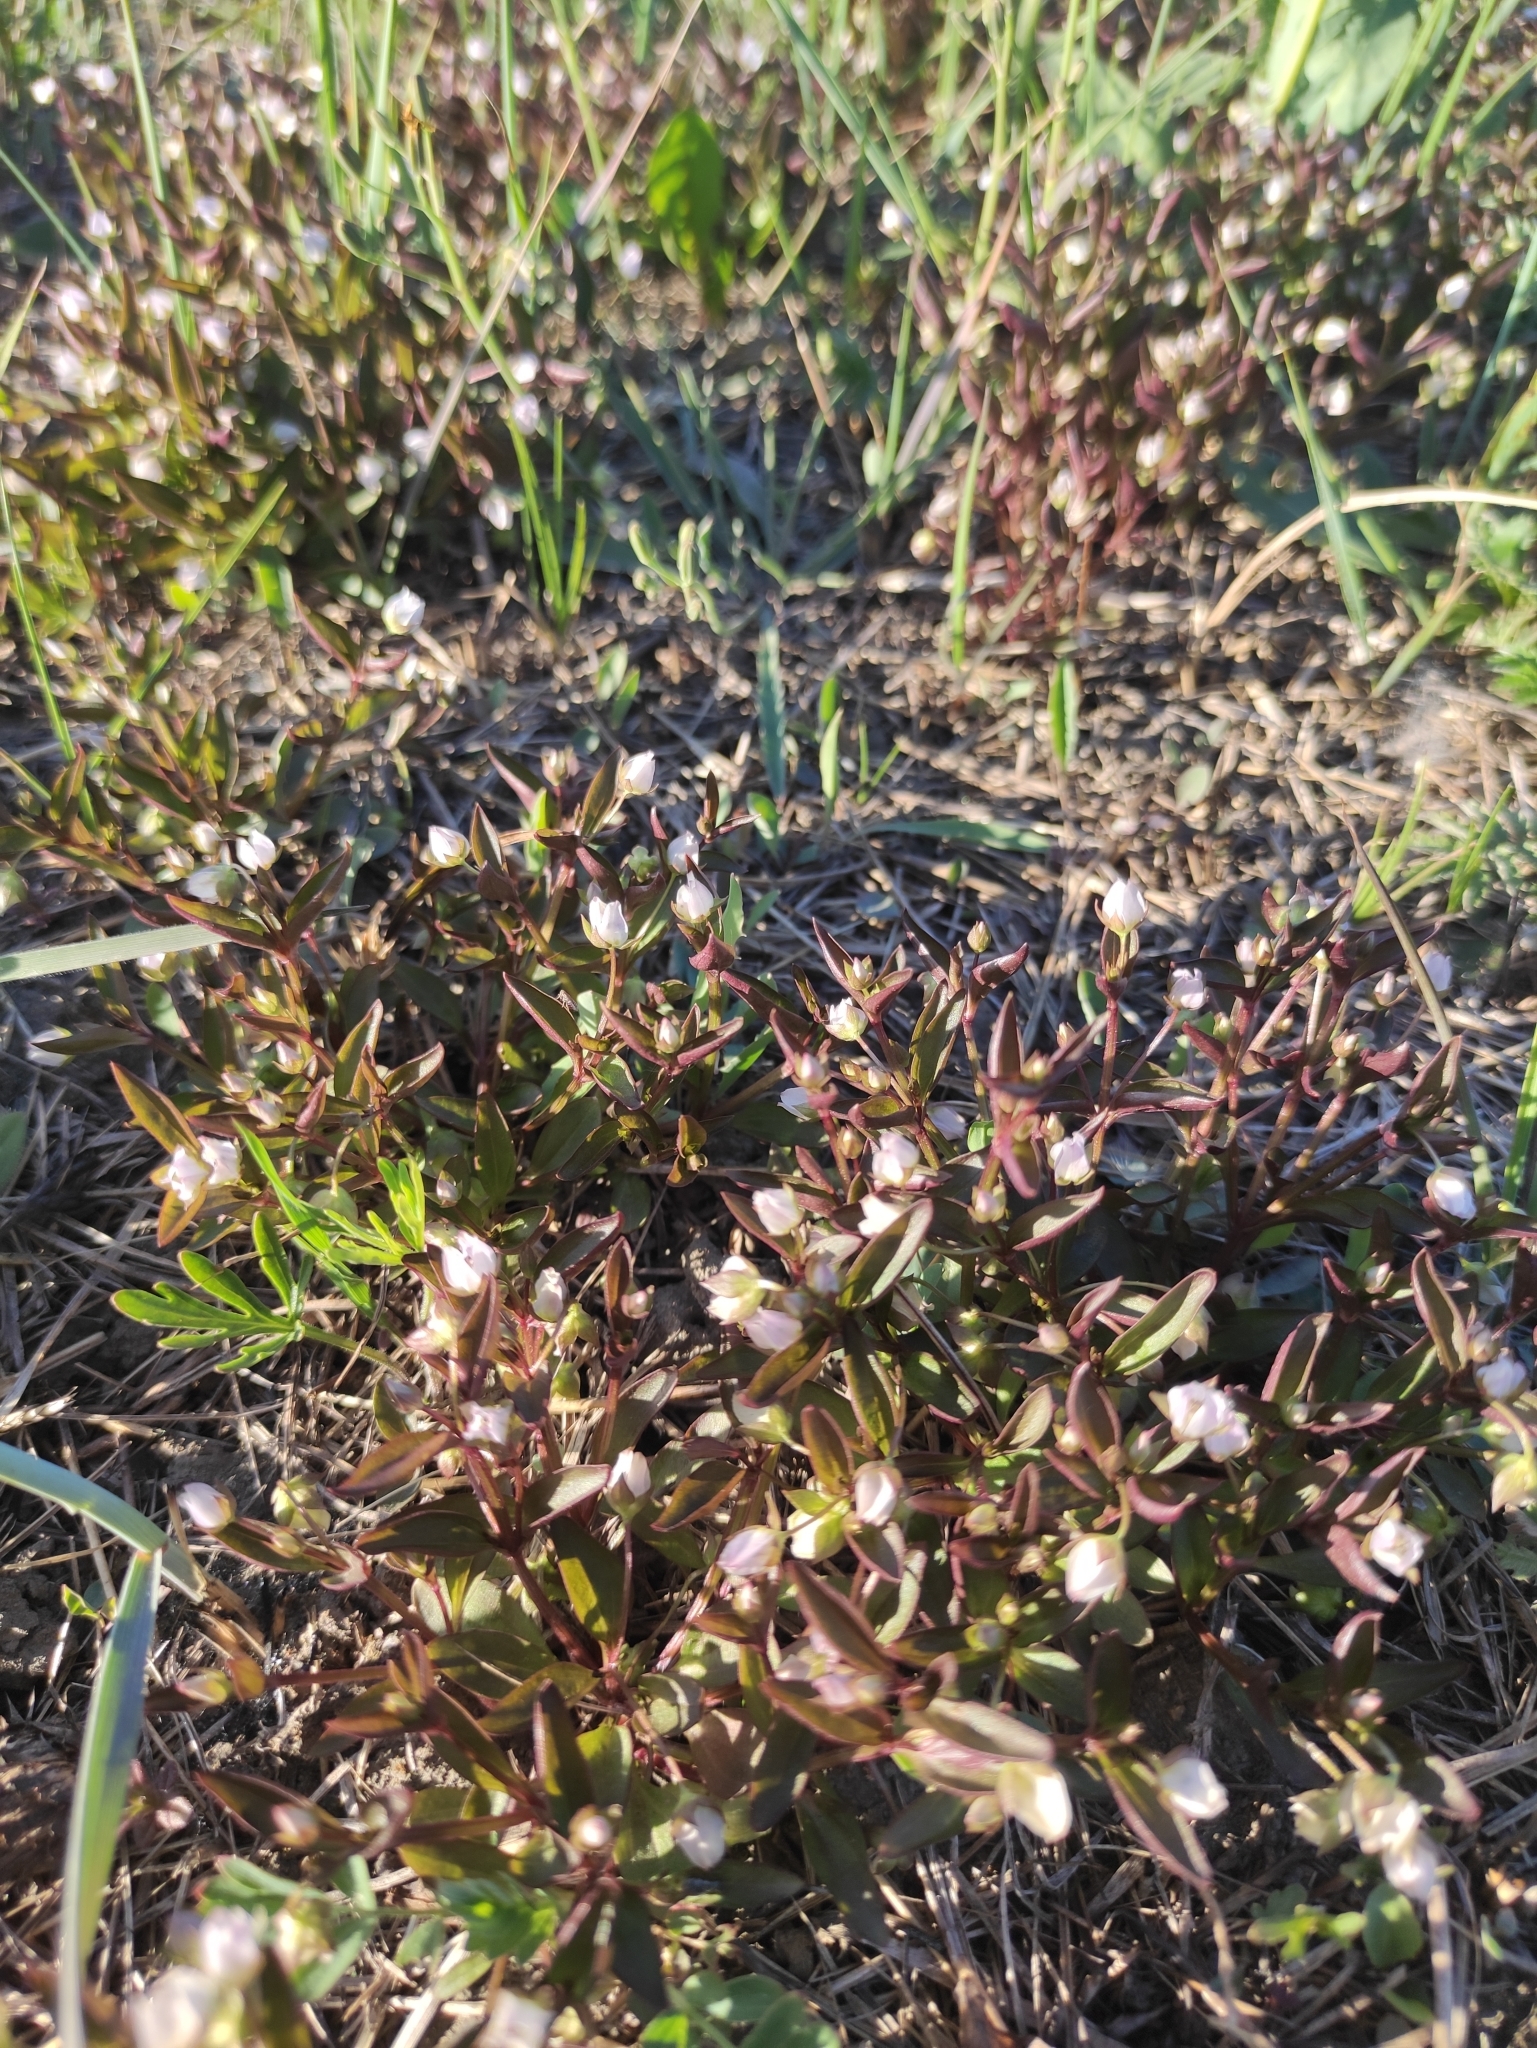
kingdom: Plantae
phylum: Tracheophyta
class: Magnoliopsida
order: Gentianales
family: Gentianaceae
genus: Swertia
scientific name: Swertia dichotoma
